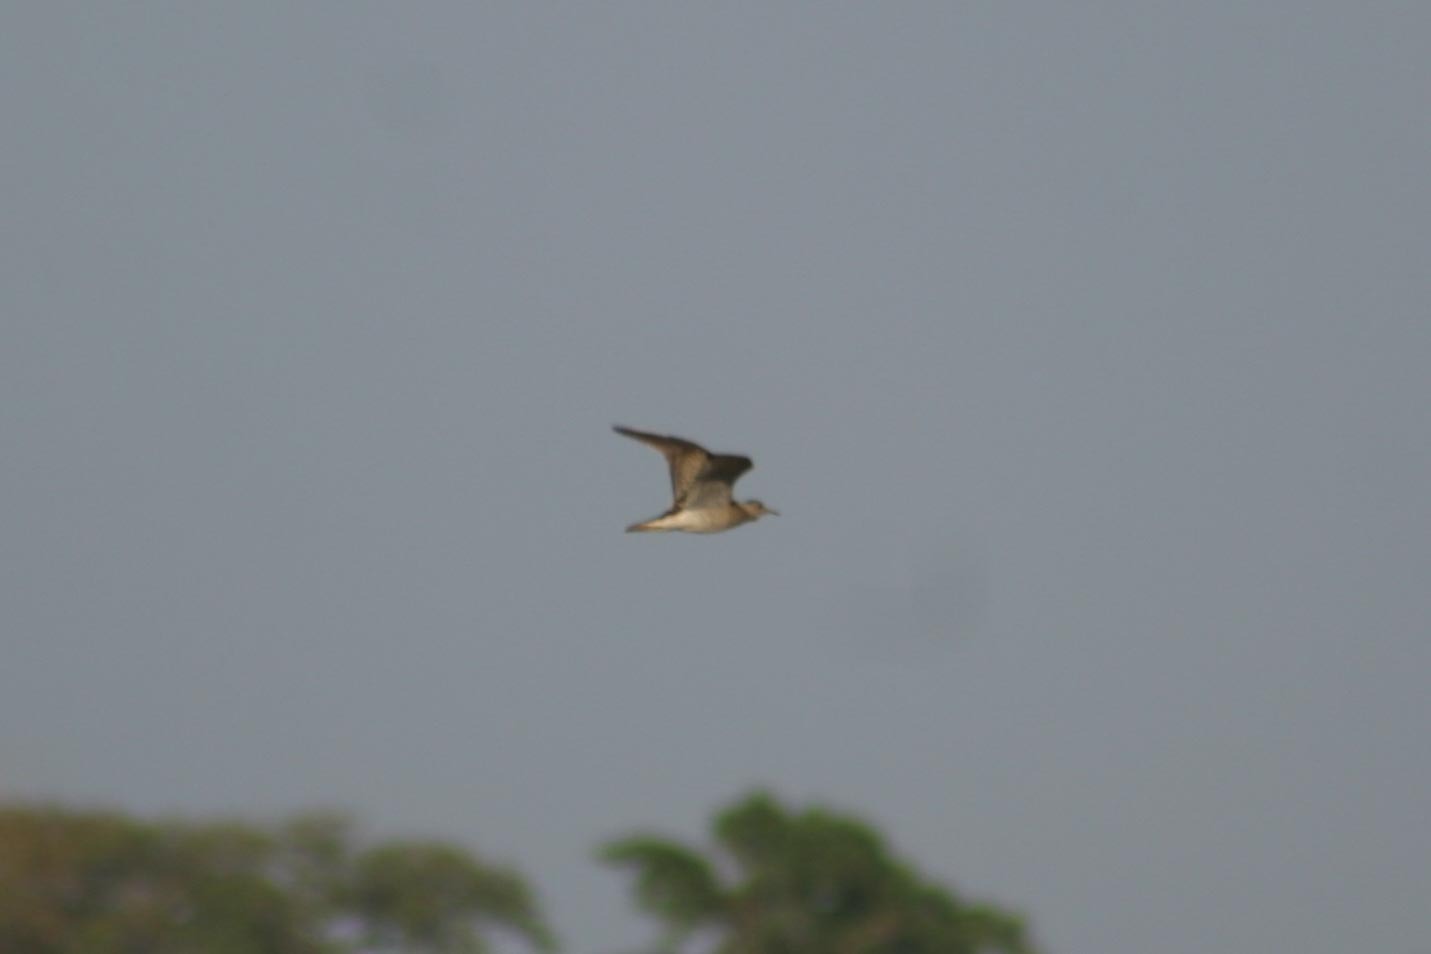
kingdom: Animalia
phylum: Chordata
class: Aves
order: Charadriiformes
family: Scolopacidae
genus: Bartramia
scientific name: Bartramia longicauda
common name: Upland sandpiper
